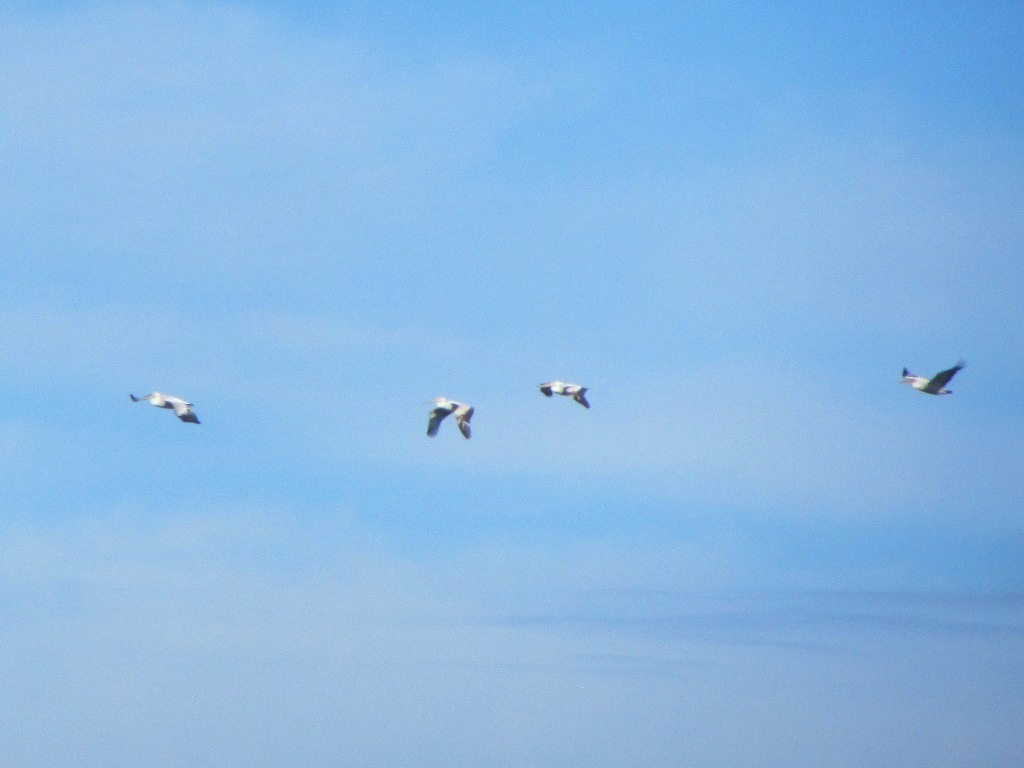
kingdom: Animalia
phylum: Chordata
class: Aves
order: Pelecaniformes
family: Pelecanidae
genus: Pelecanus
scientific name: Pelecanus crispus
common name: Dalmatian pelican
